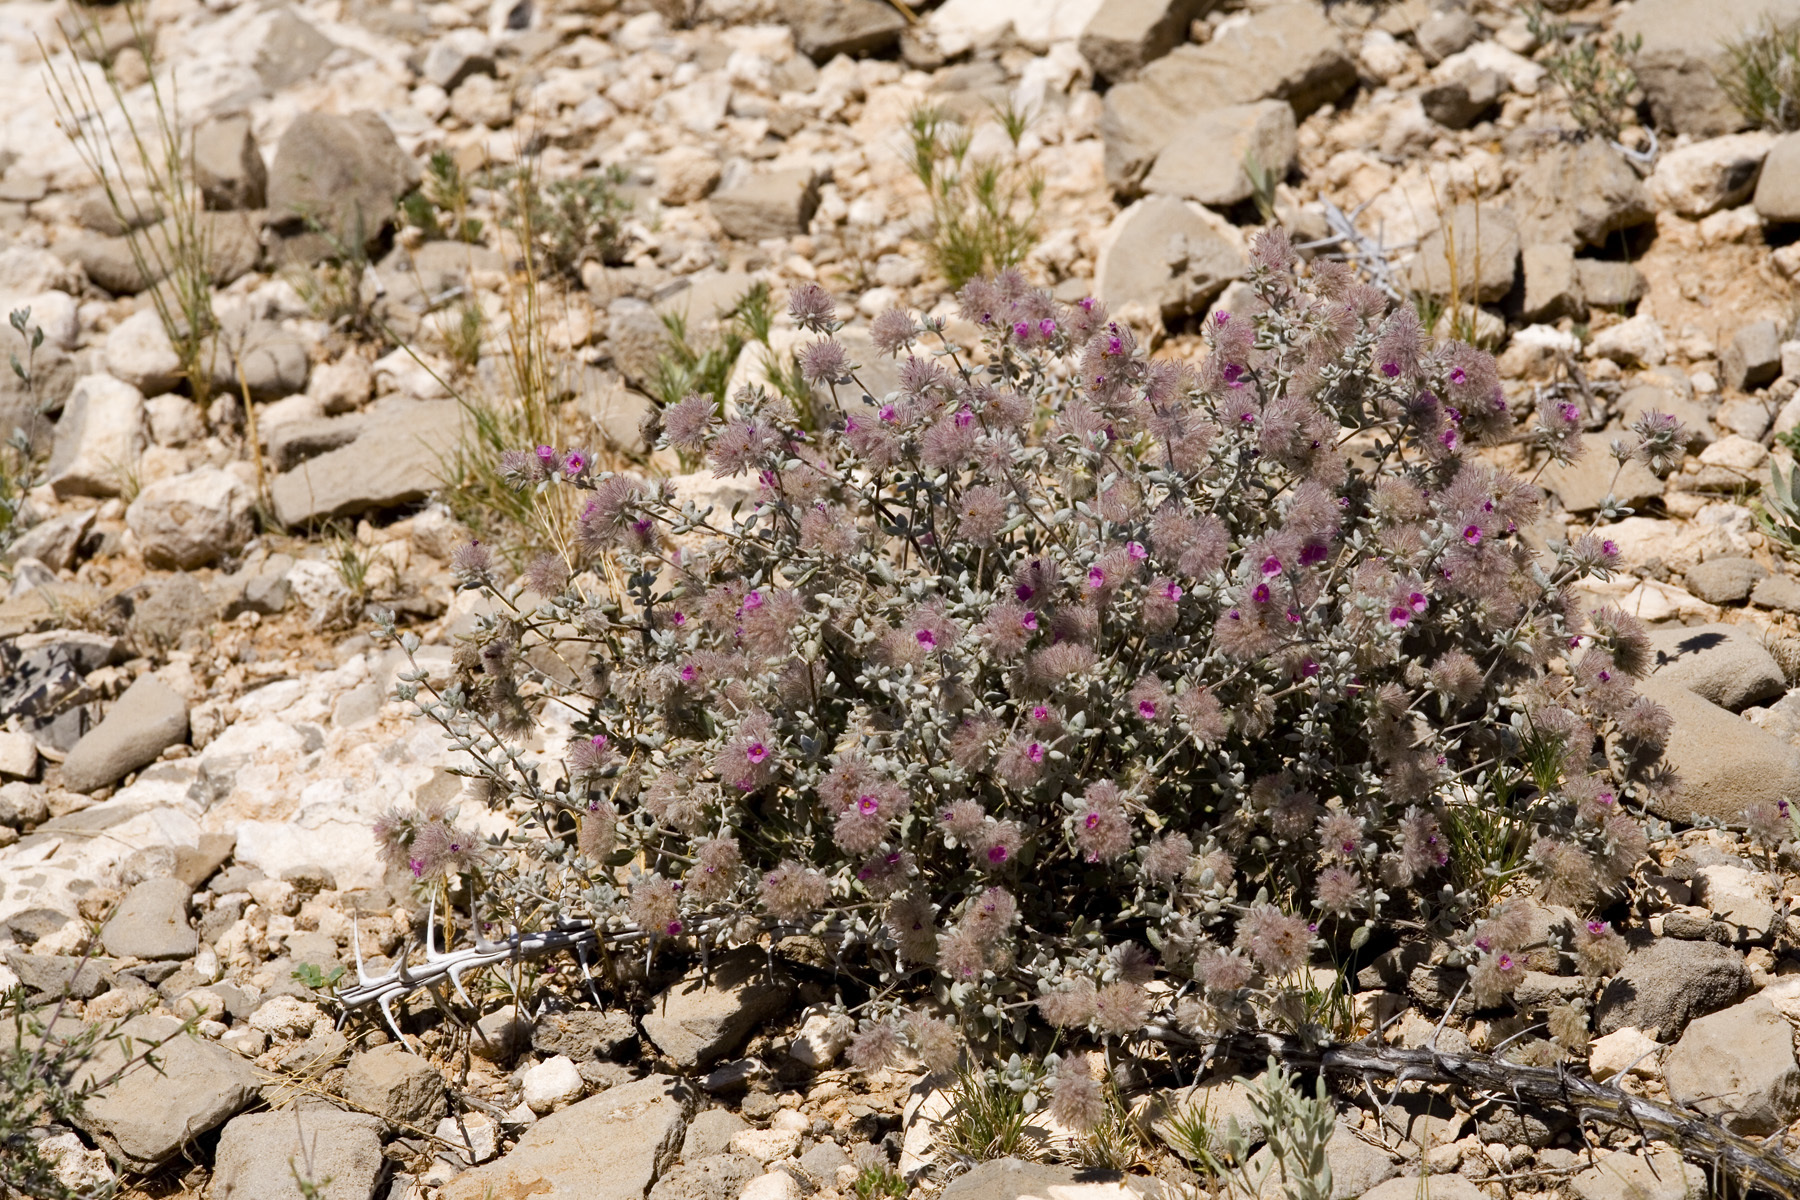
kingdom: Plantae
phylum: Tracheophyta
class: Magnoliopsida
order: Boraginales
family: Ehretiaceae
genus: Tiquilia
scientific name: Tiquilia greggii
